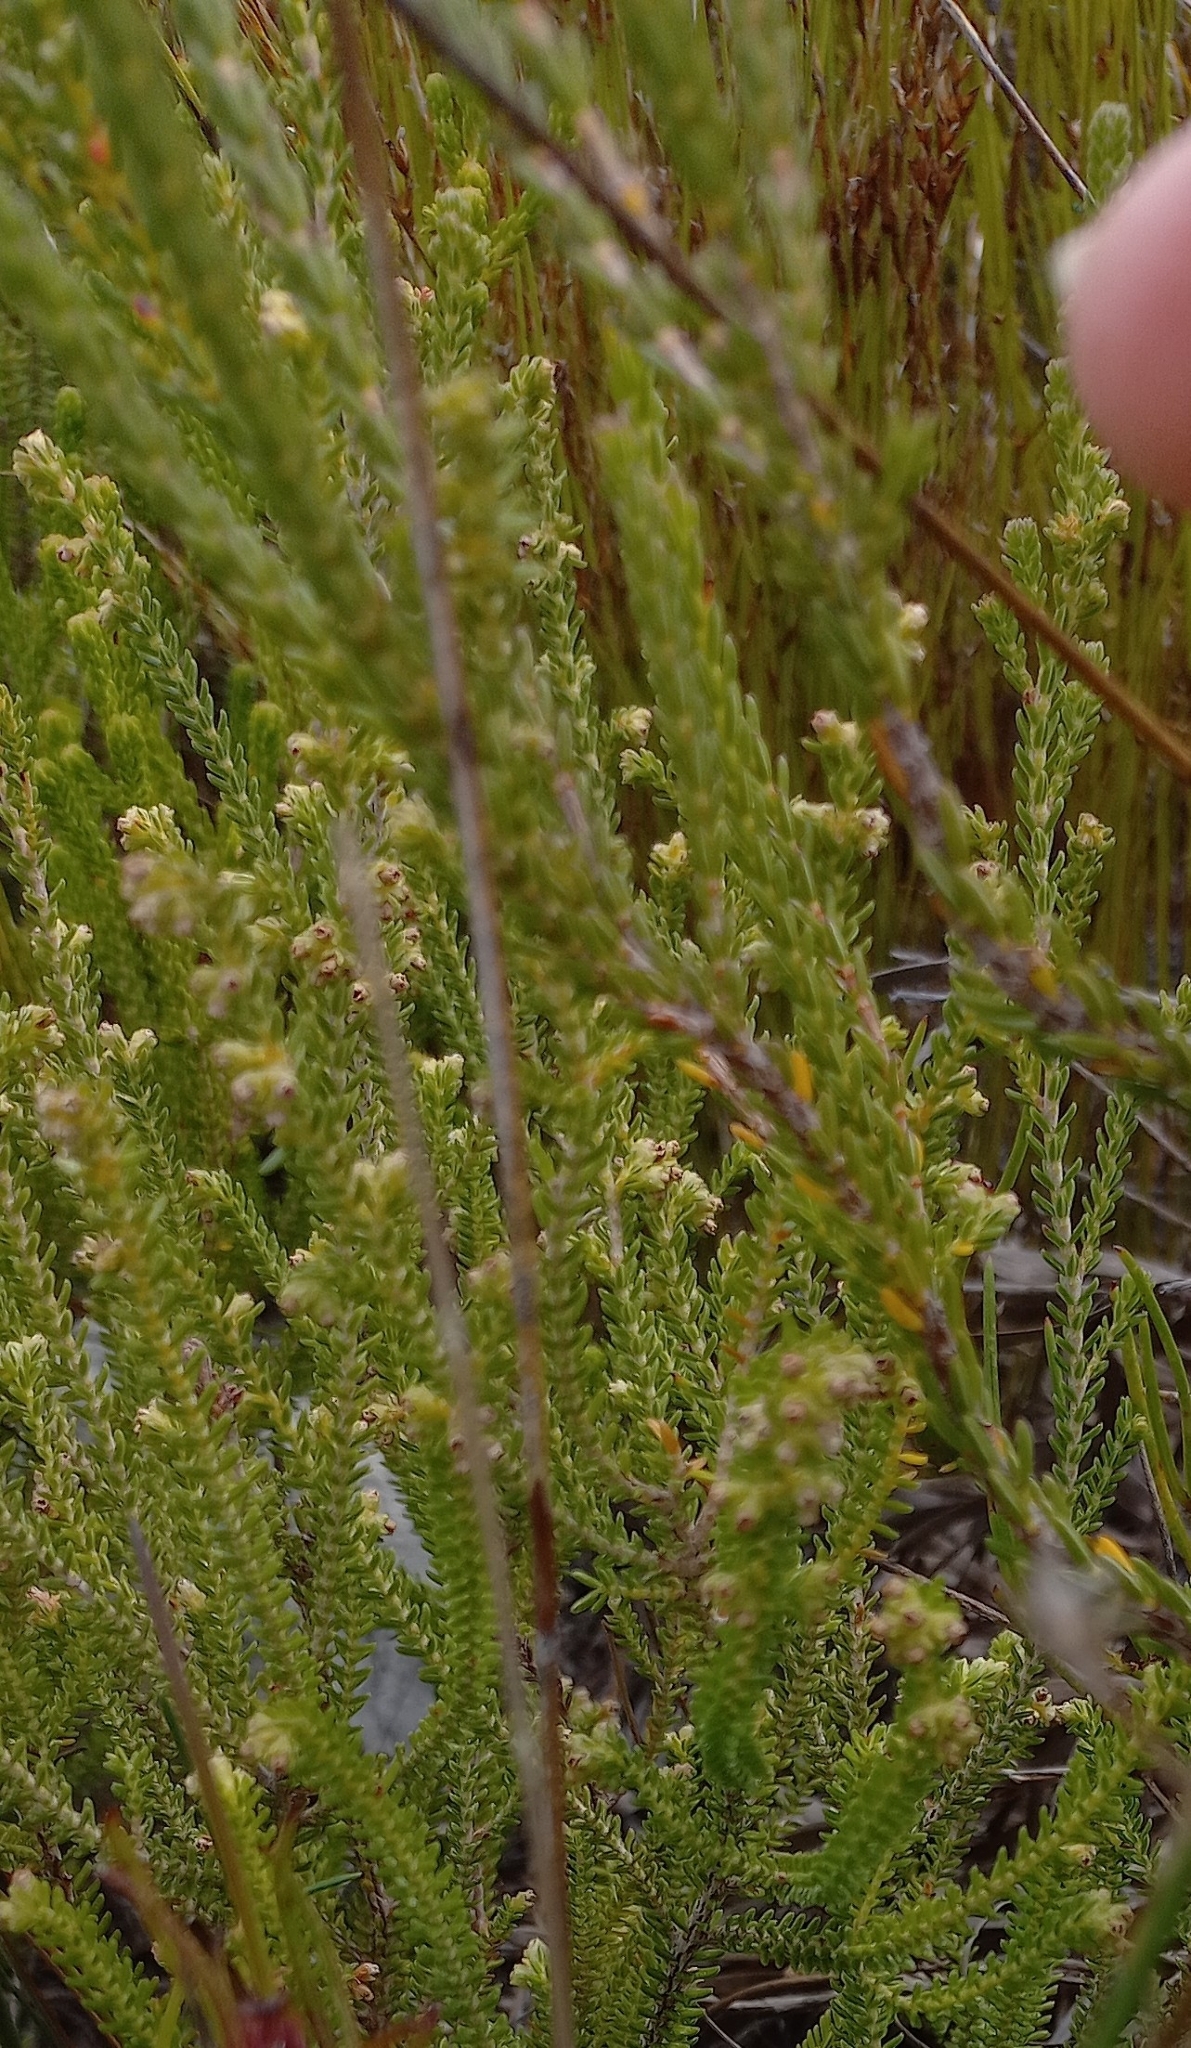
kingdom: Plantae
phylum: Tracheophyta
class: Magnoliopsida
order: Ericales
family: Ericaceae
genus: Erica
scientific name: Erica serrata
